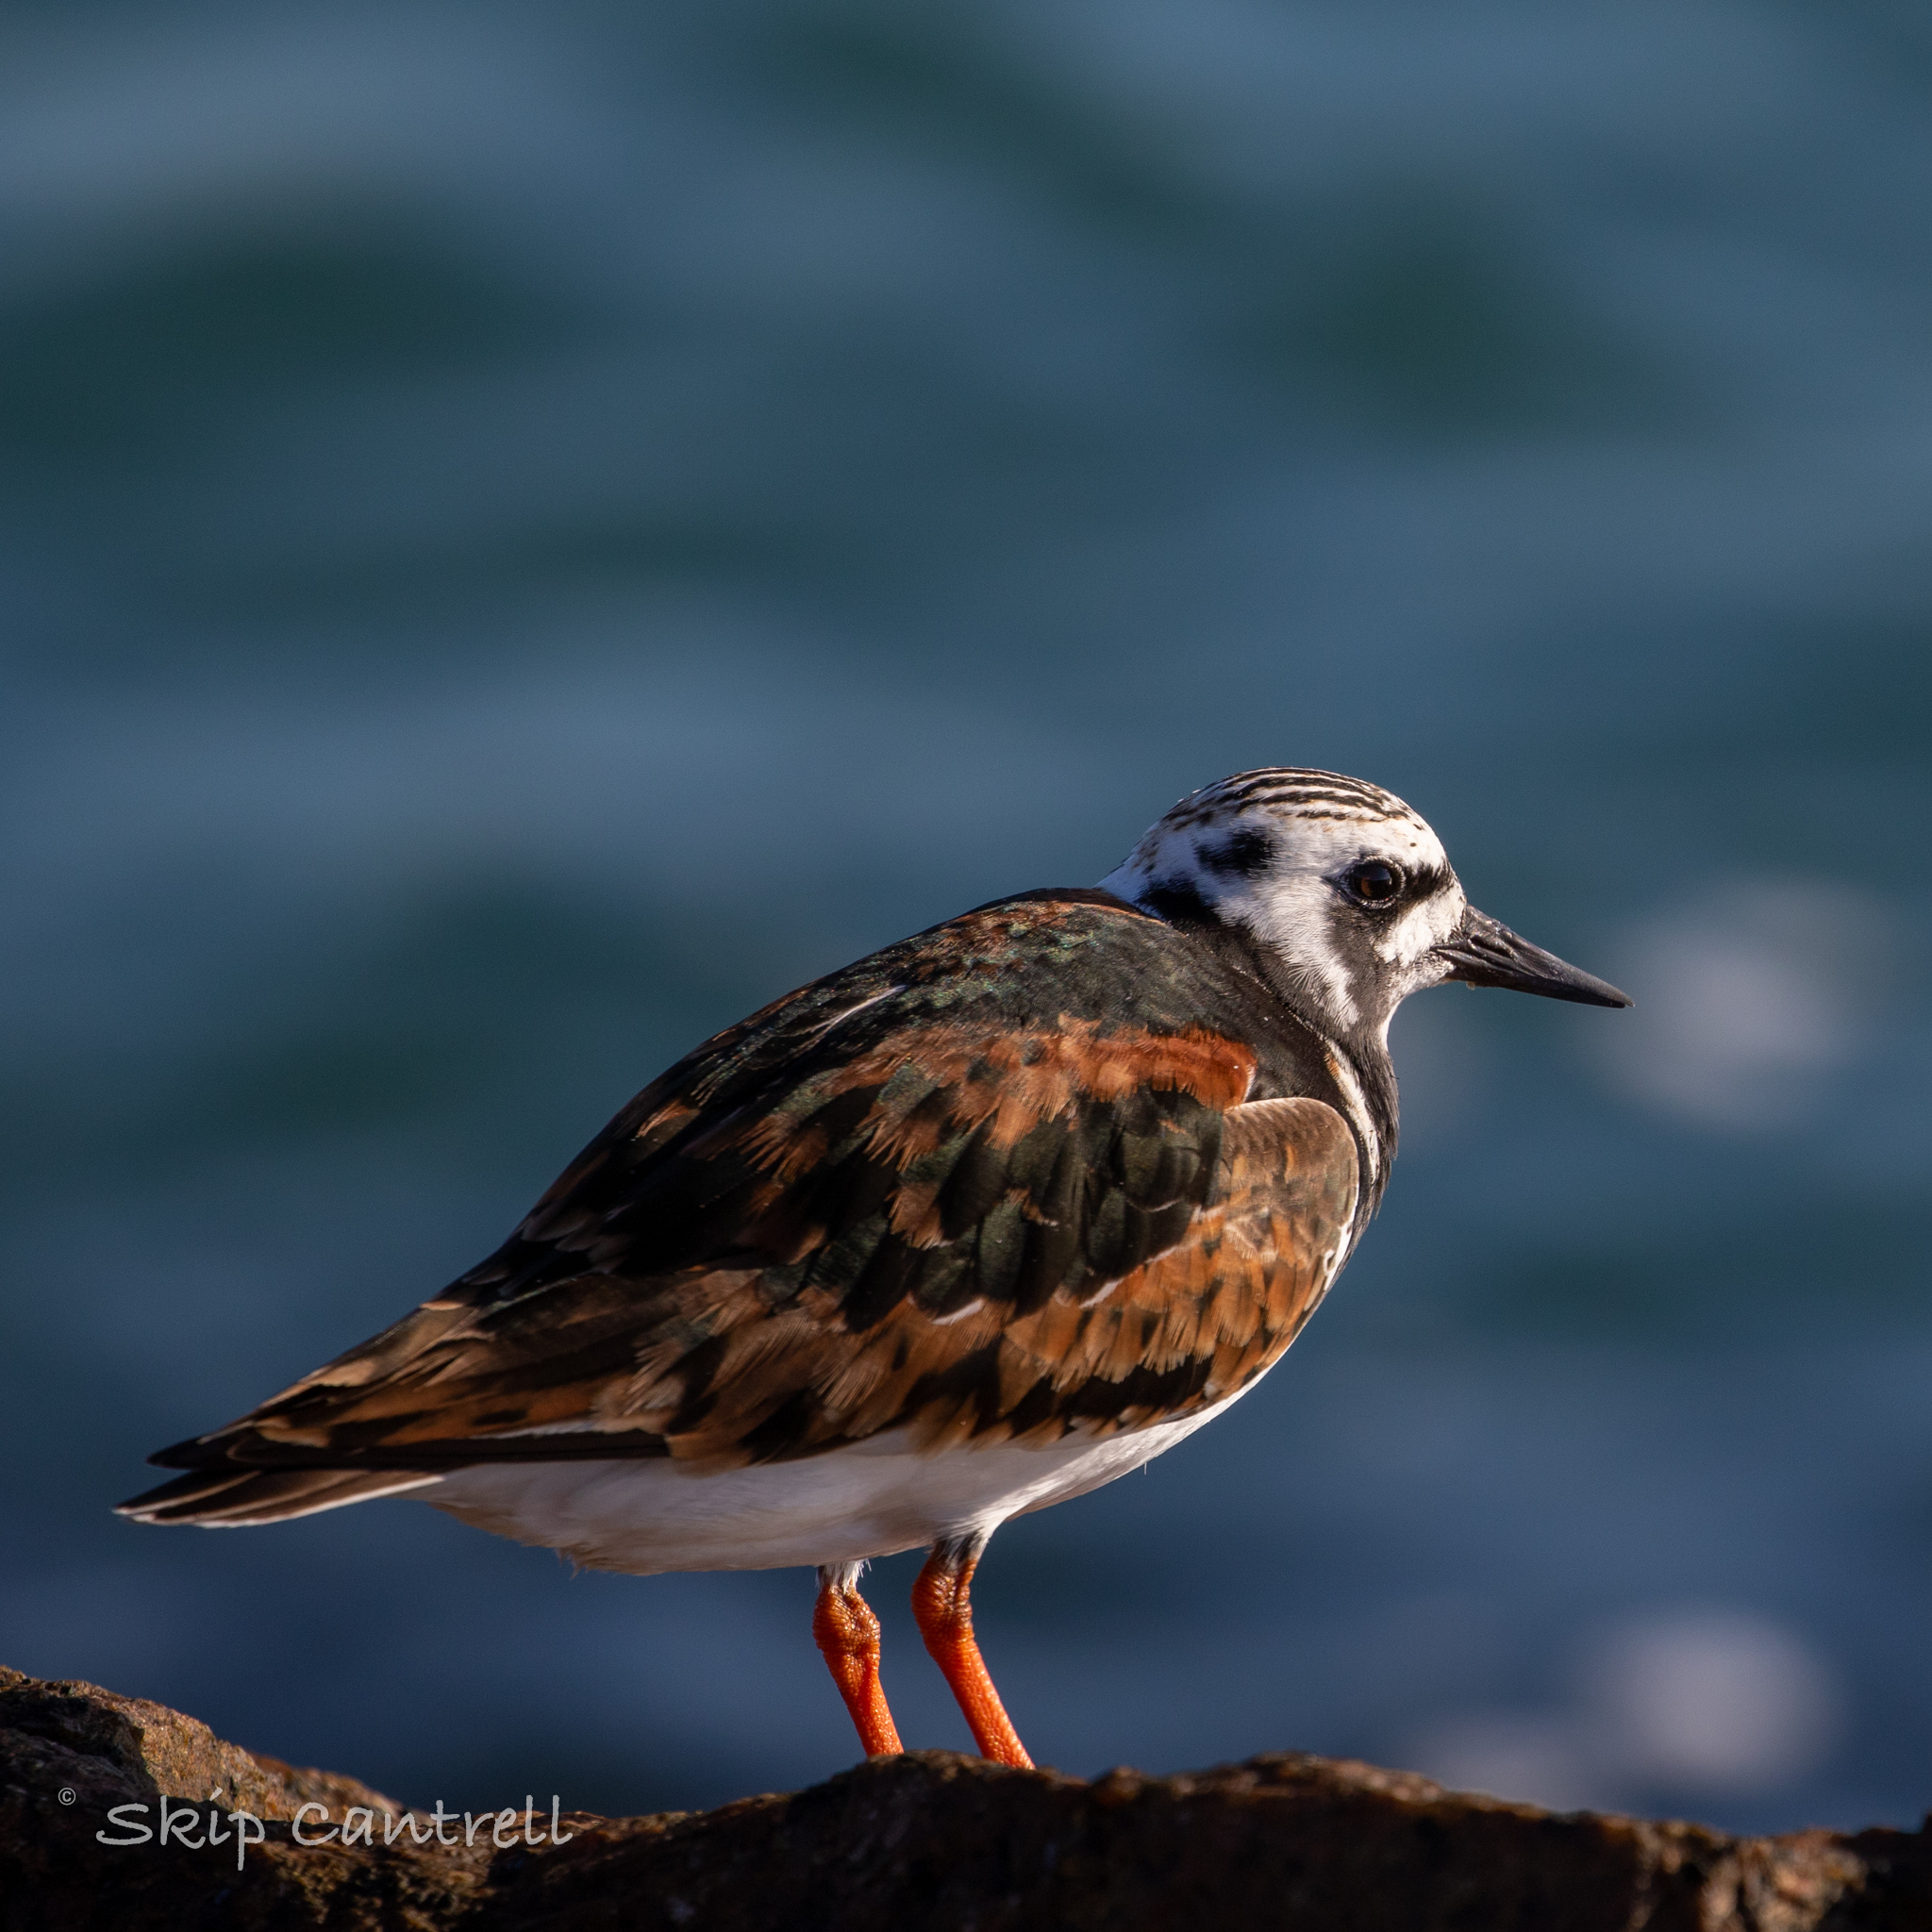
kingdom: Animalia
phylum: Chordata
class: Aves
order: Charadriiformes
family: Scolopacidae
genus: Arenaria
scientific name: Arenaria interpres
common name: Ruddy turnstone
